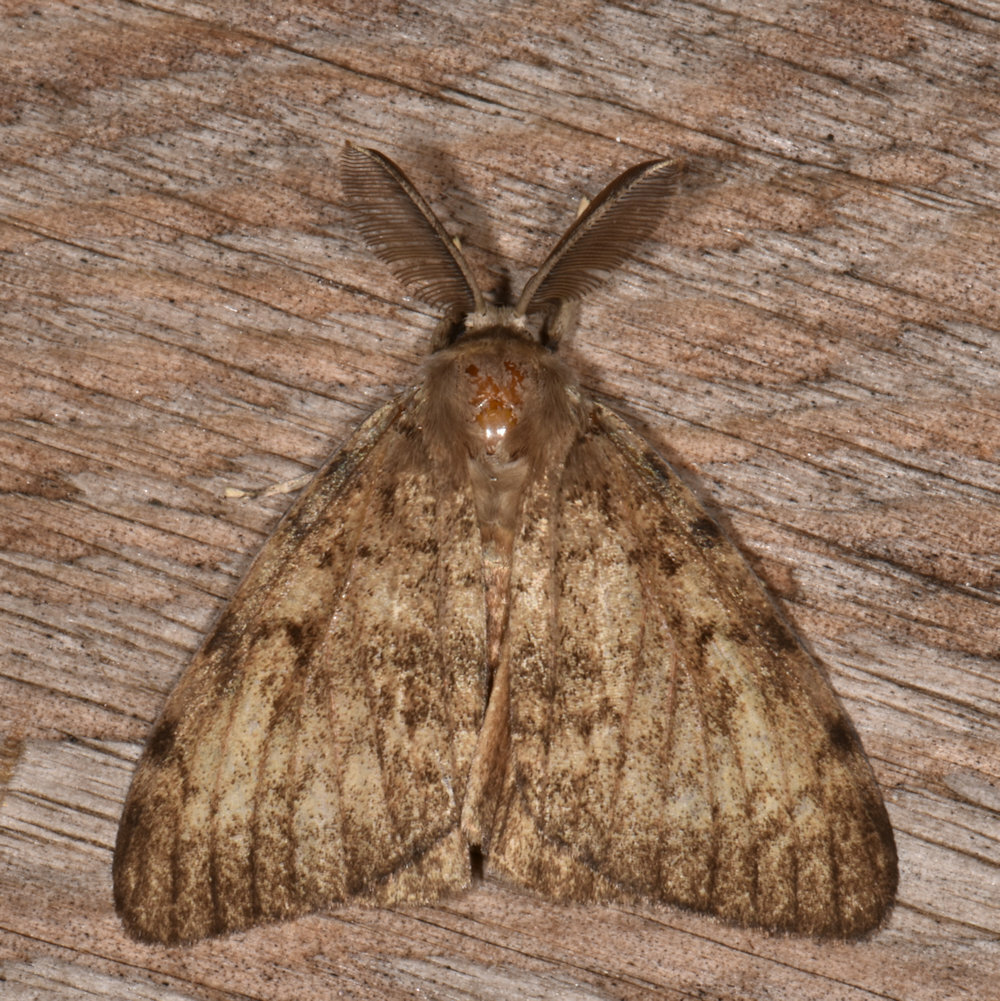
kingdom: Animalia
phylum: Arthropoda
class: Insecta
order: Lepidoptera
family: Erebidae
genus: Lymantria
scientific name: Lymantria dispar
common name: Gypsy moth
